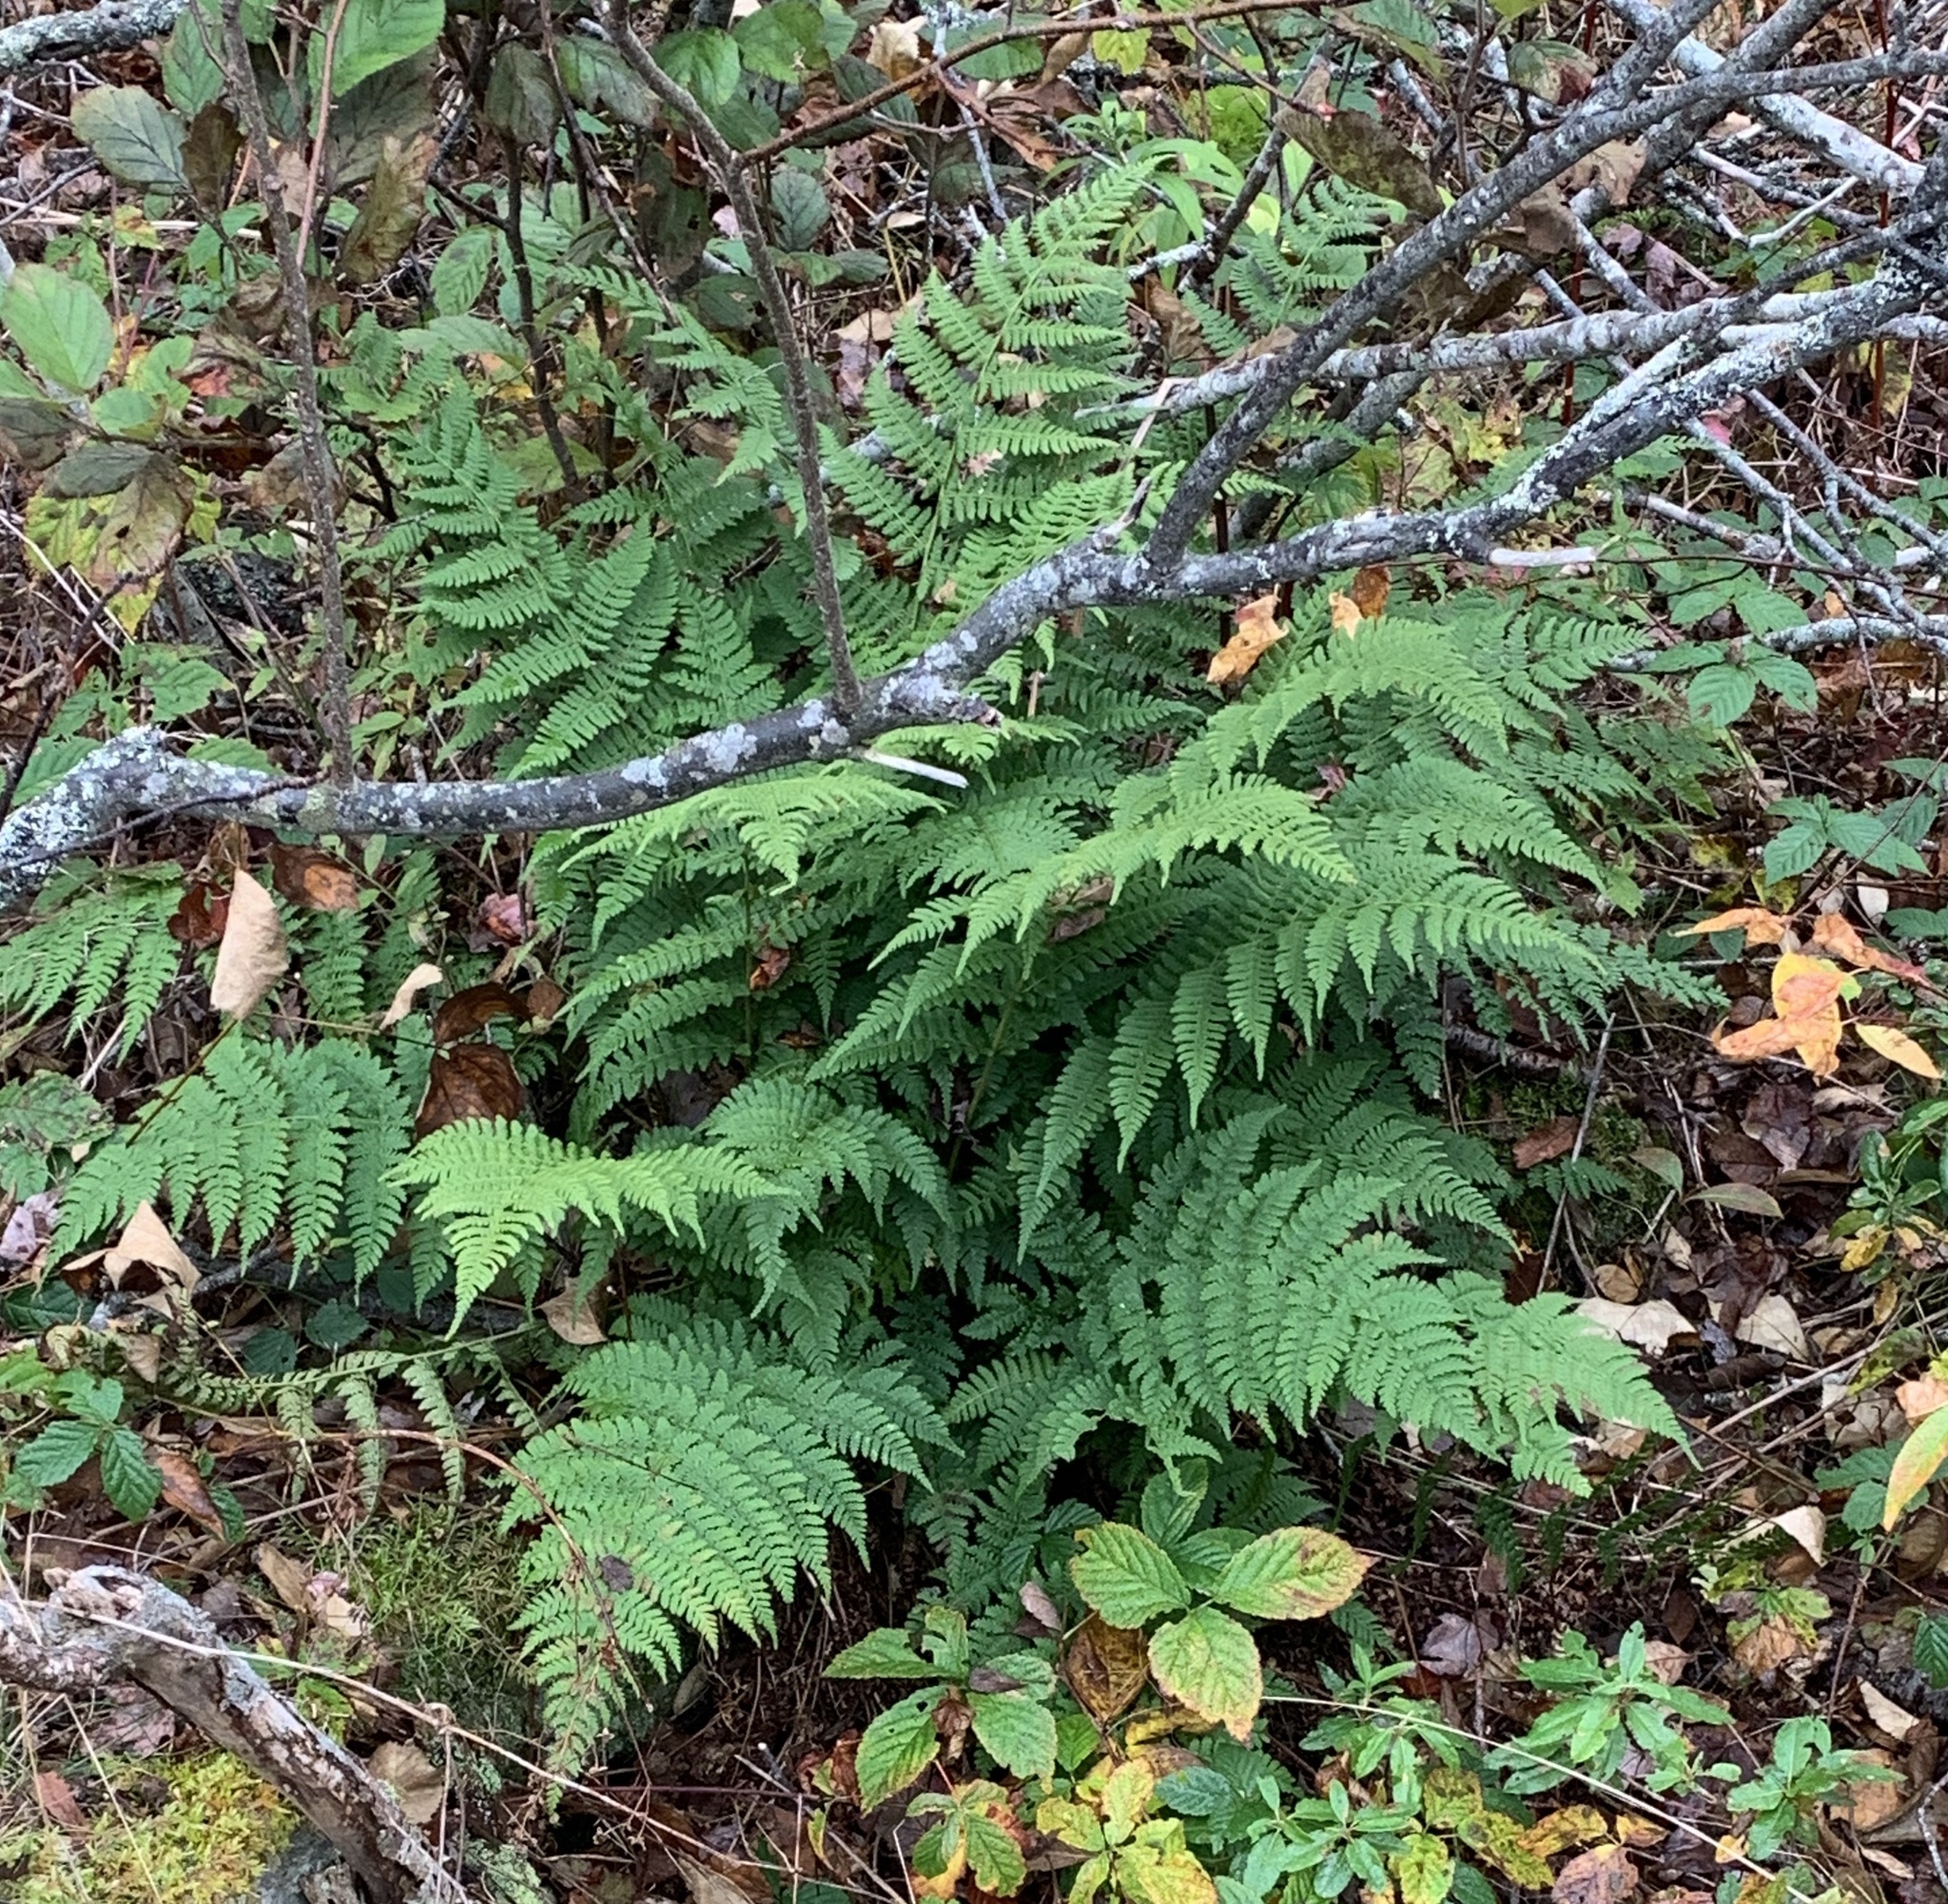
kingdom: Plantae
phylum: Tracheophyta
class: Polypodiopsida
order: Polypodiales
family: Dryopteridaceae
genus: Dryopteris
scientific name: Dryopteris intermedia
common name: Evergreen wood fern
